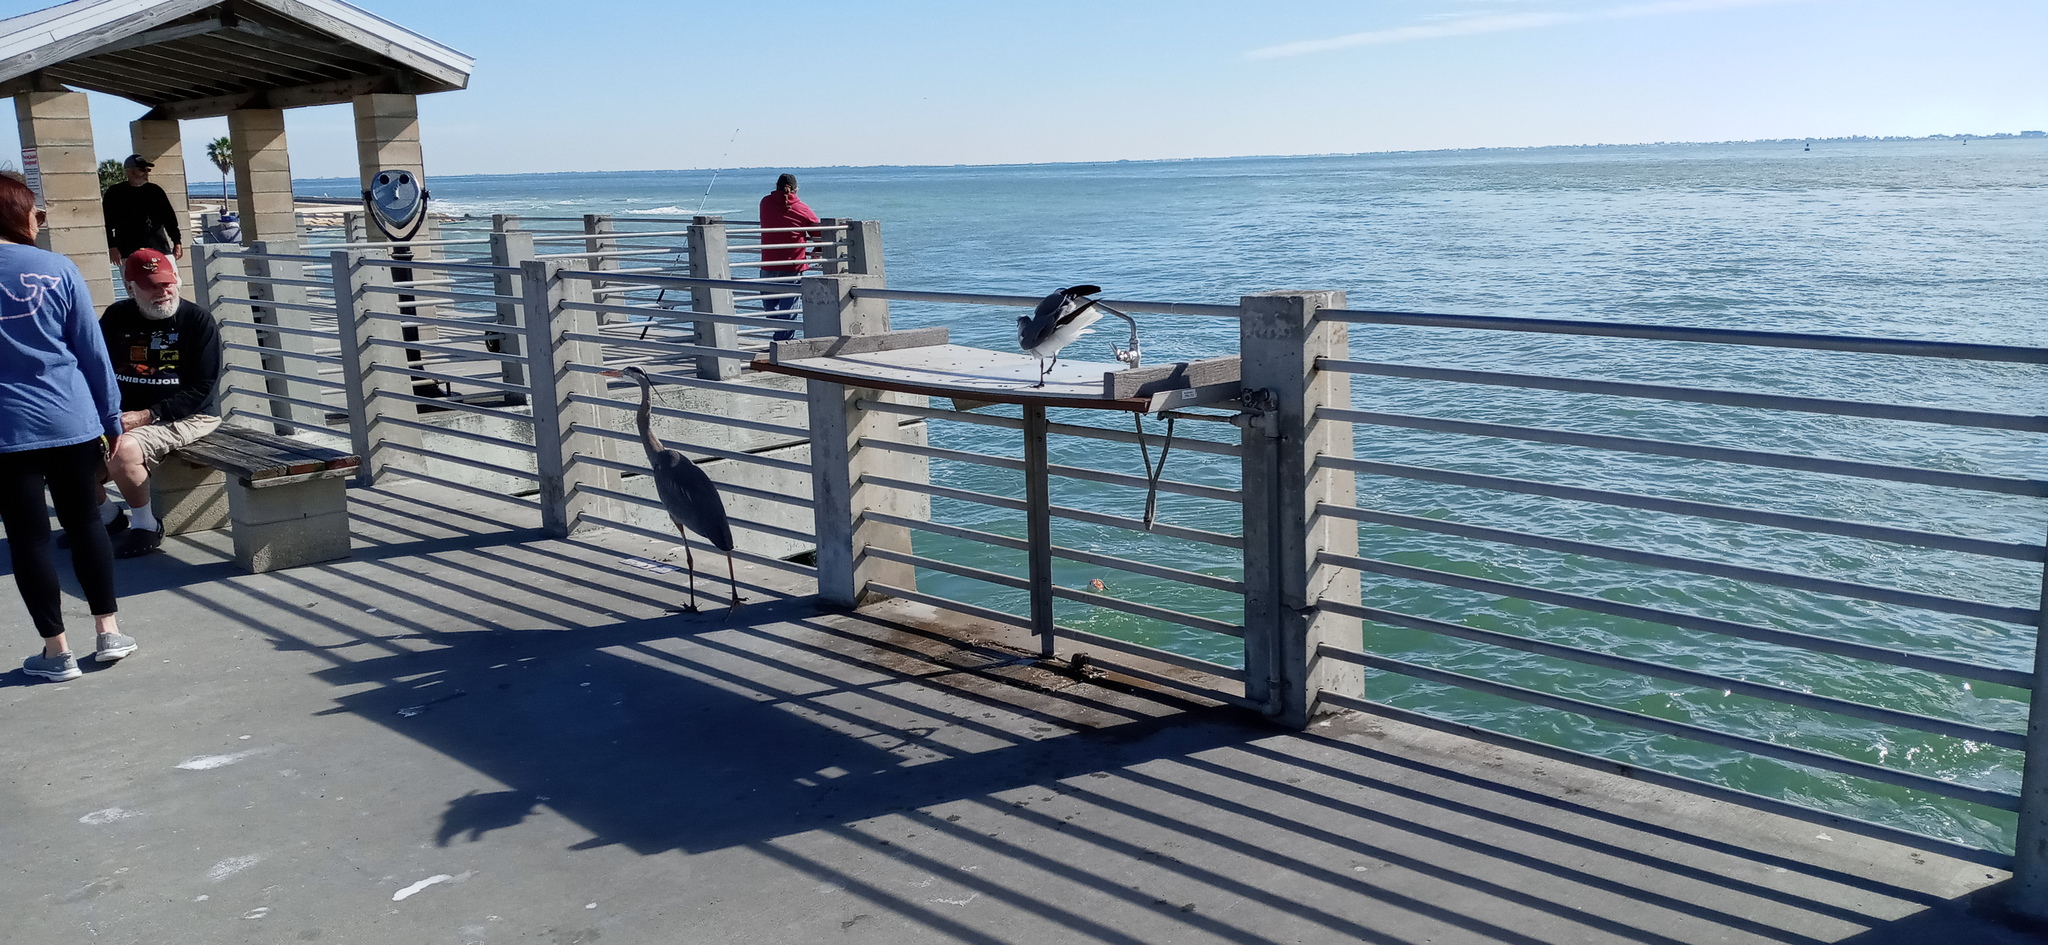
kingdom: Animalia
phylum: Chordata
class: Aves
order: Pelecaniformes
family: Ardeidae
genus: Ardea
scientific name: Ardea herodias
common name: Great blue heron
